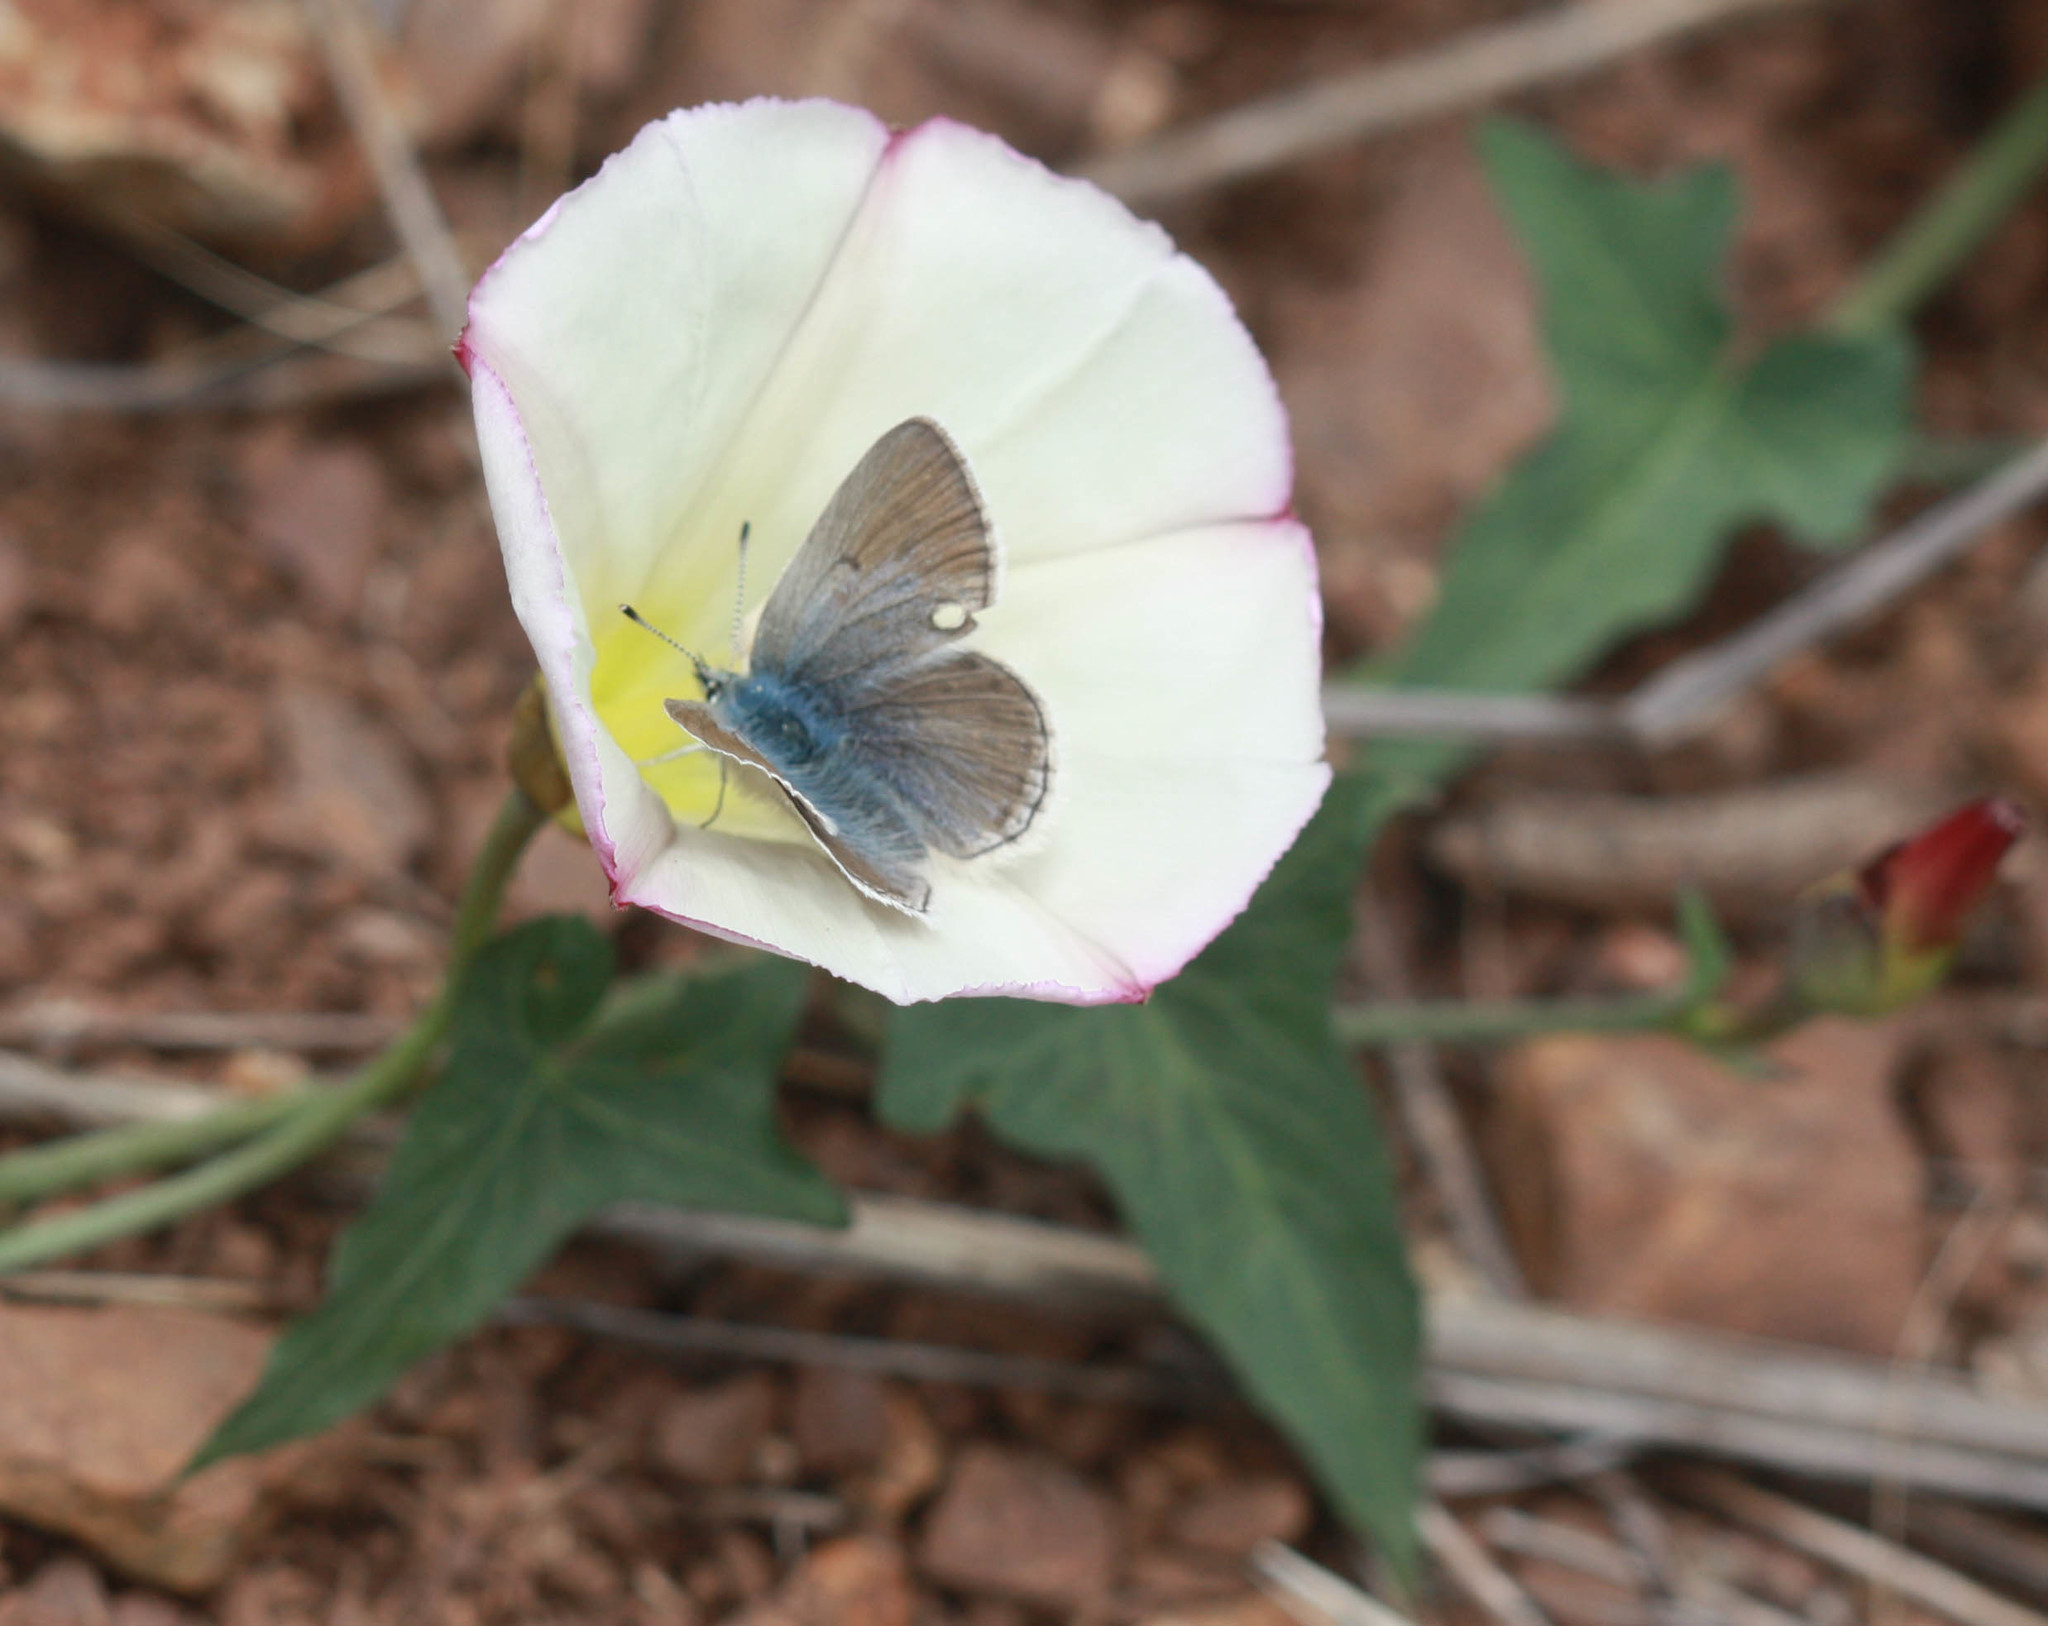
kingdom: Animalia
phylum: Arthropoda
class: Insecta
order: Lepidoptera
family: Lycaenidae
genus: Icaricia
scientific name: Icaricia icarioides
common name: Boisduval's blue
